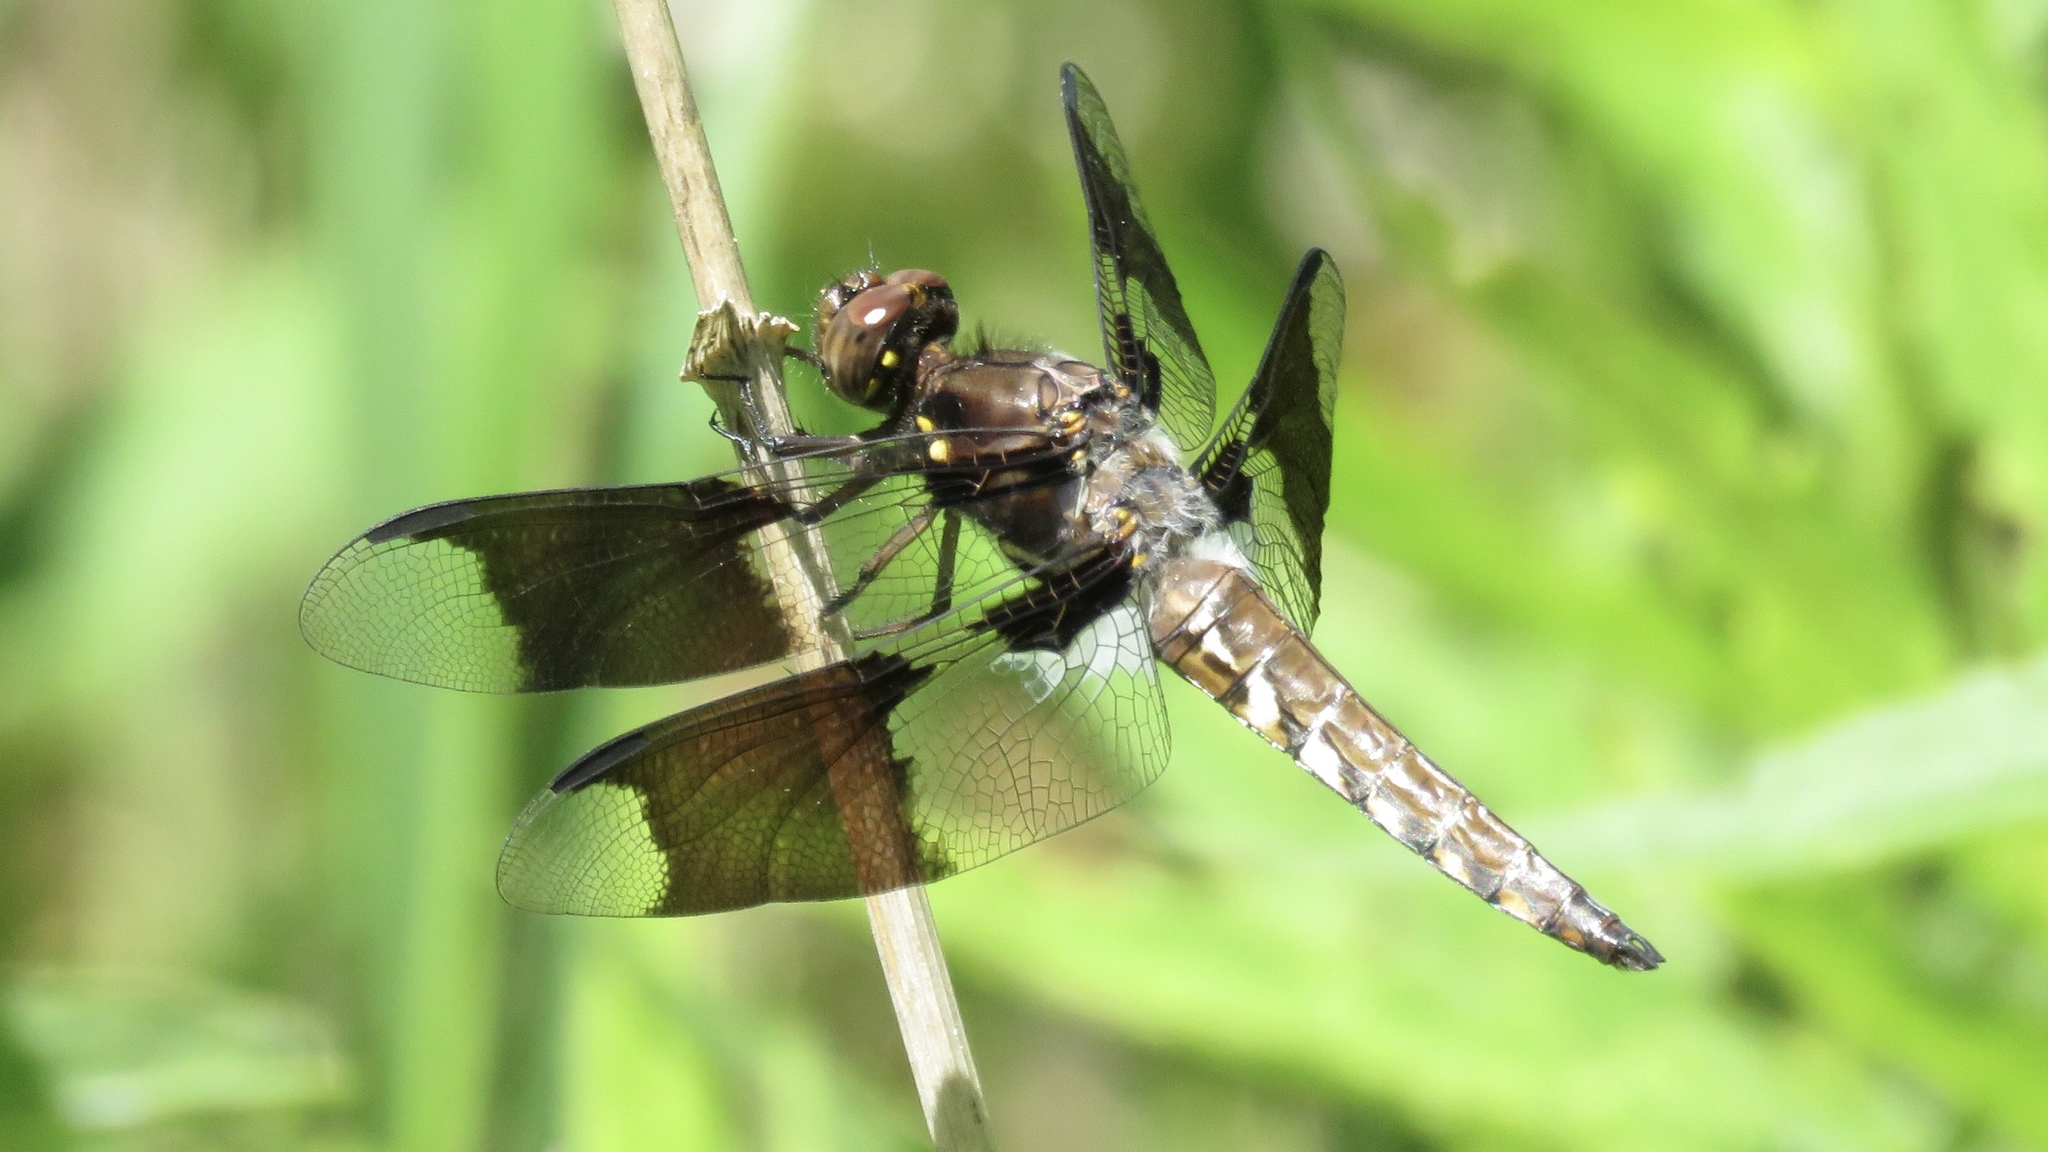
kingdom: Animalia
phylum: Arthropoda
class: Insecta
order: Odonata
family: Libellulidae
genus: Plathemis
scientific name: Plathemis lydia
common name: Common whitetail
